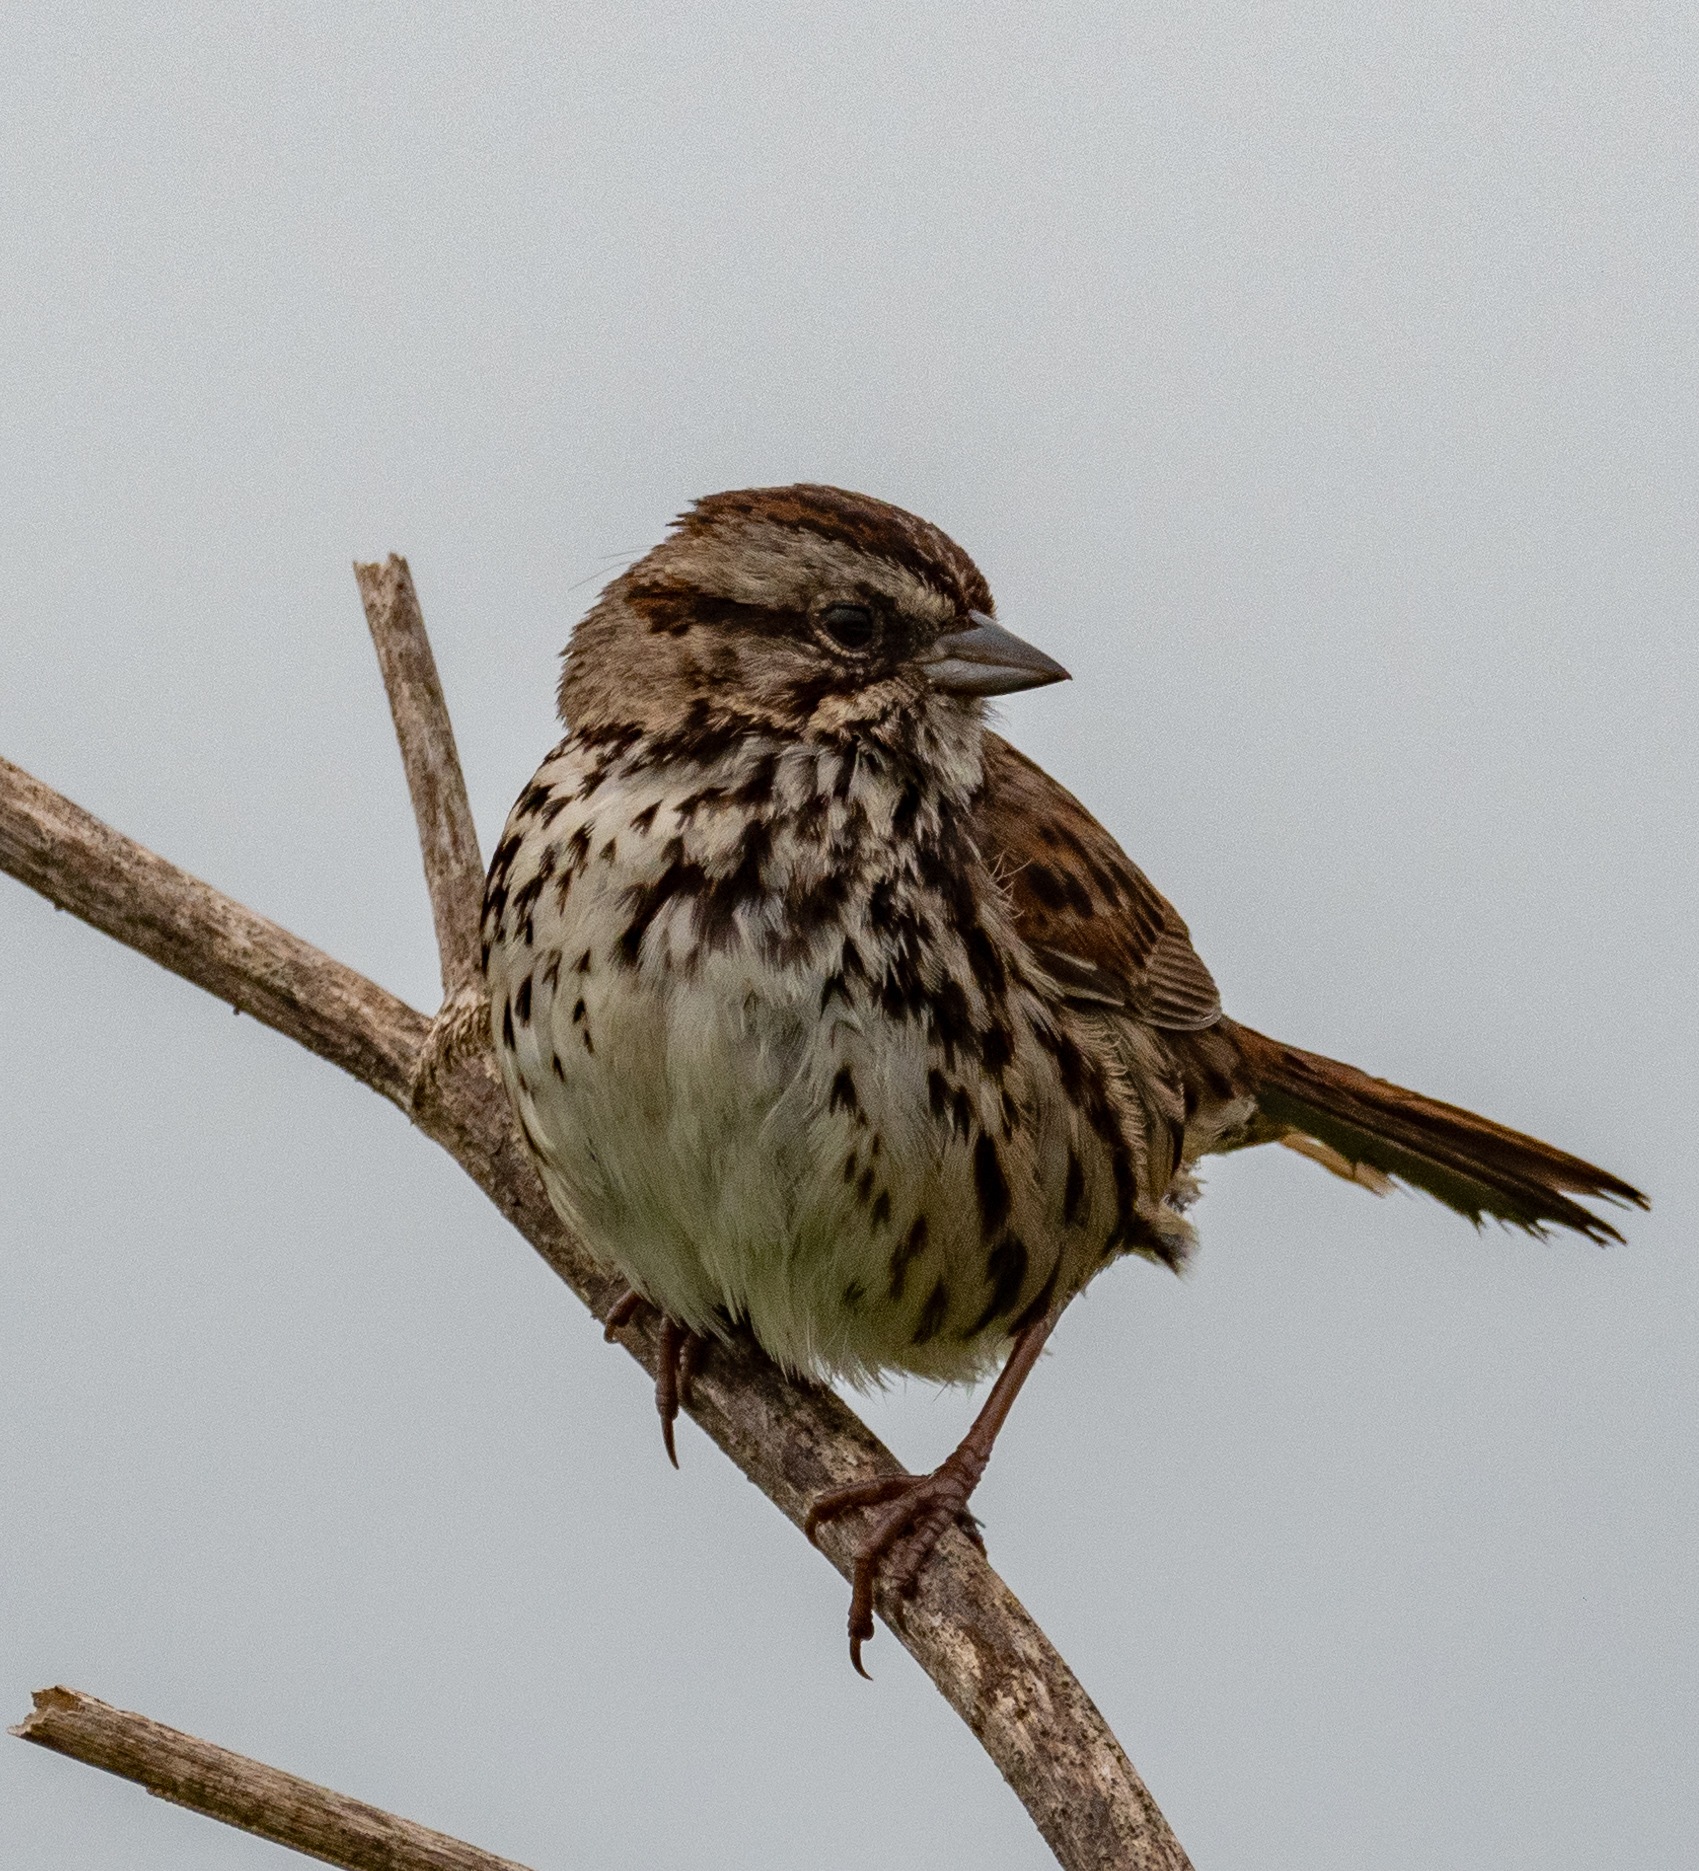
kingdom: Animalia
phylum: Chordata
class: Aves
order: Passeriformes
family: Passerellidae
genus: Melospiza
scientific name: Melospiza melodia
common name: Song sparrow
